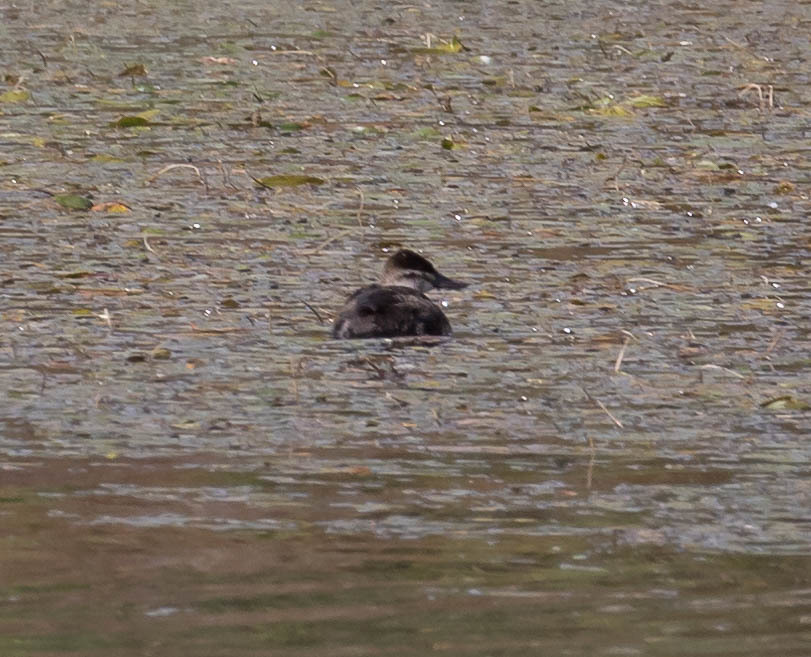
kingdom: Animalia
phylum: Chordata
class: Aves
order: Anseriformes
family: Anatidae
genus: Oxyura
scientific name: Oxyura jamaicensis
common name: Ruddy duck
